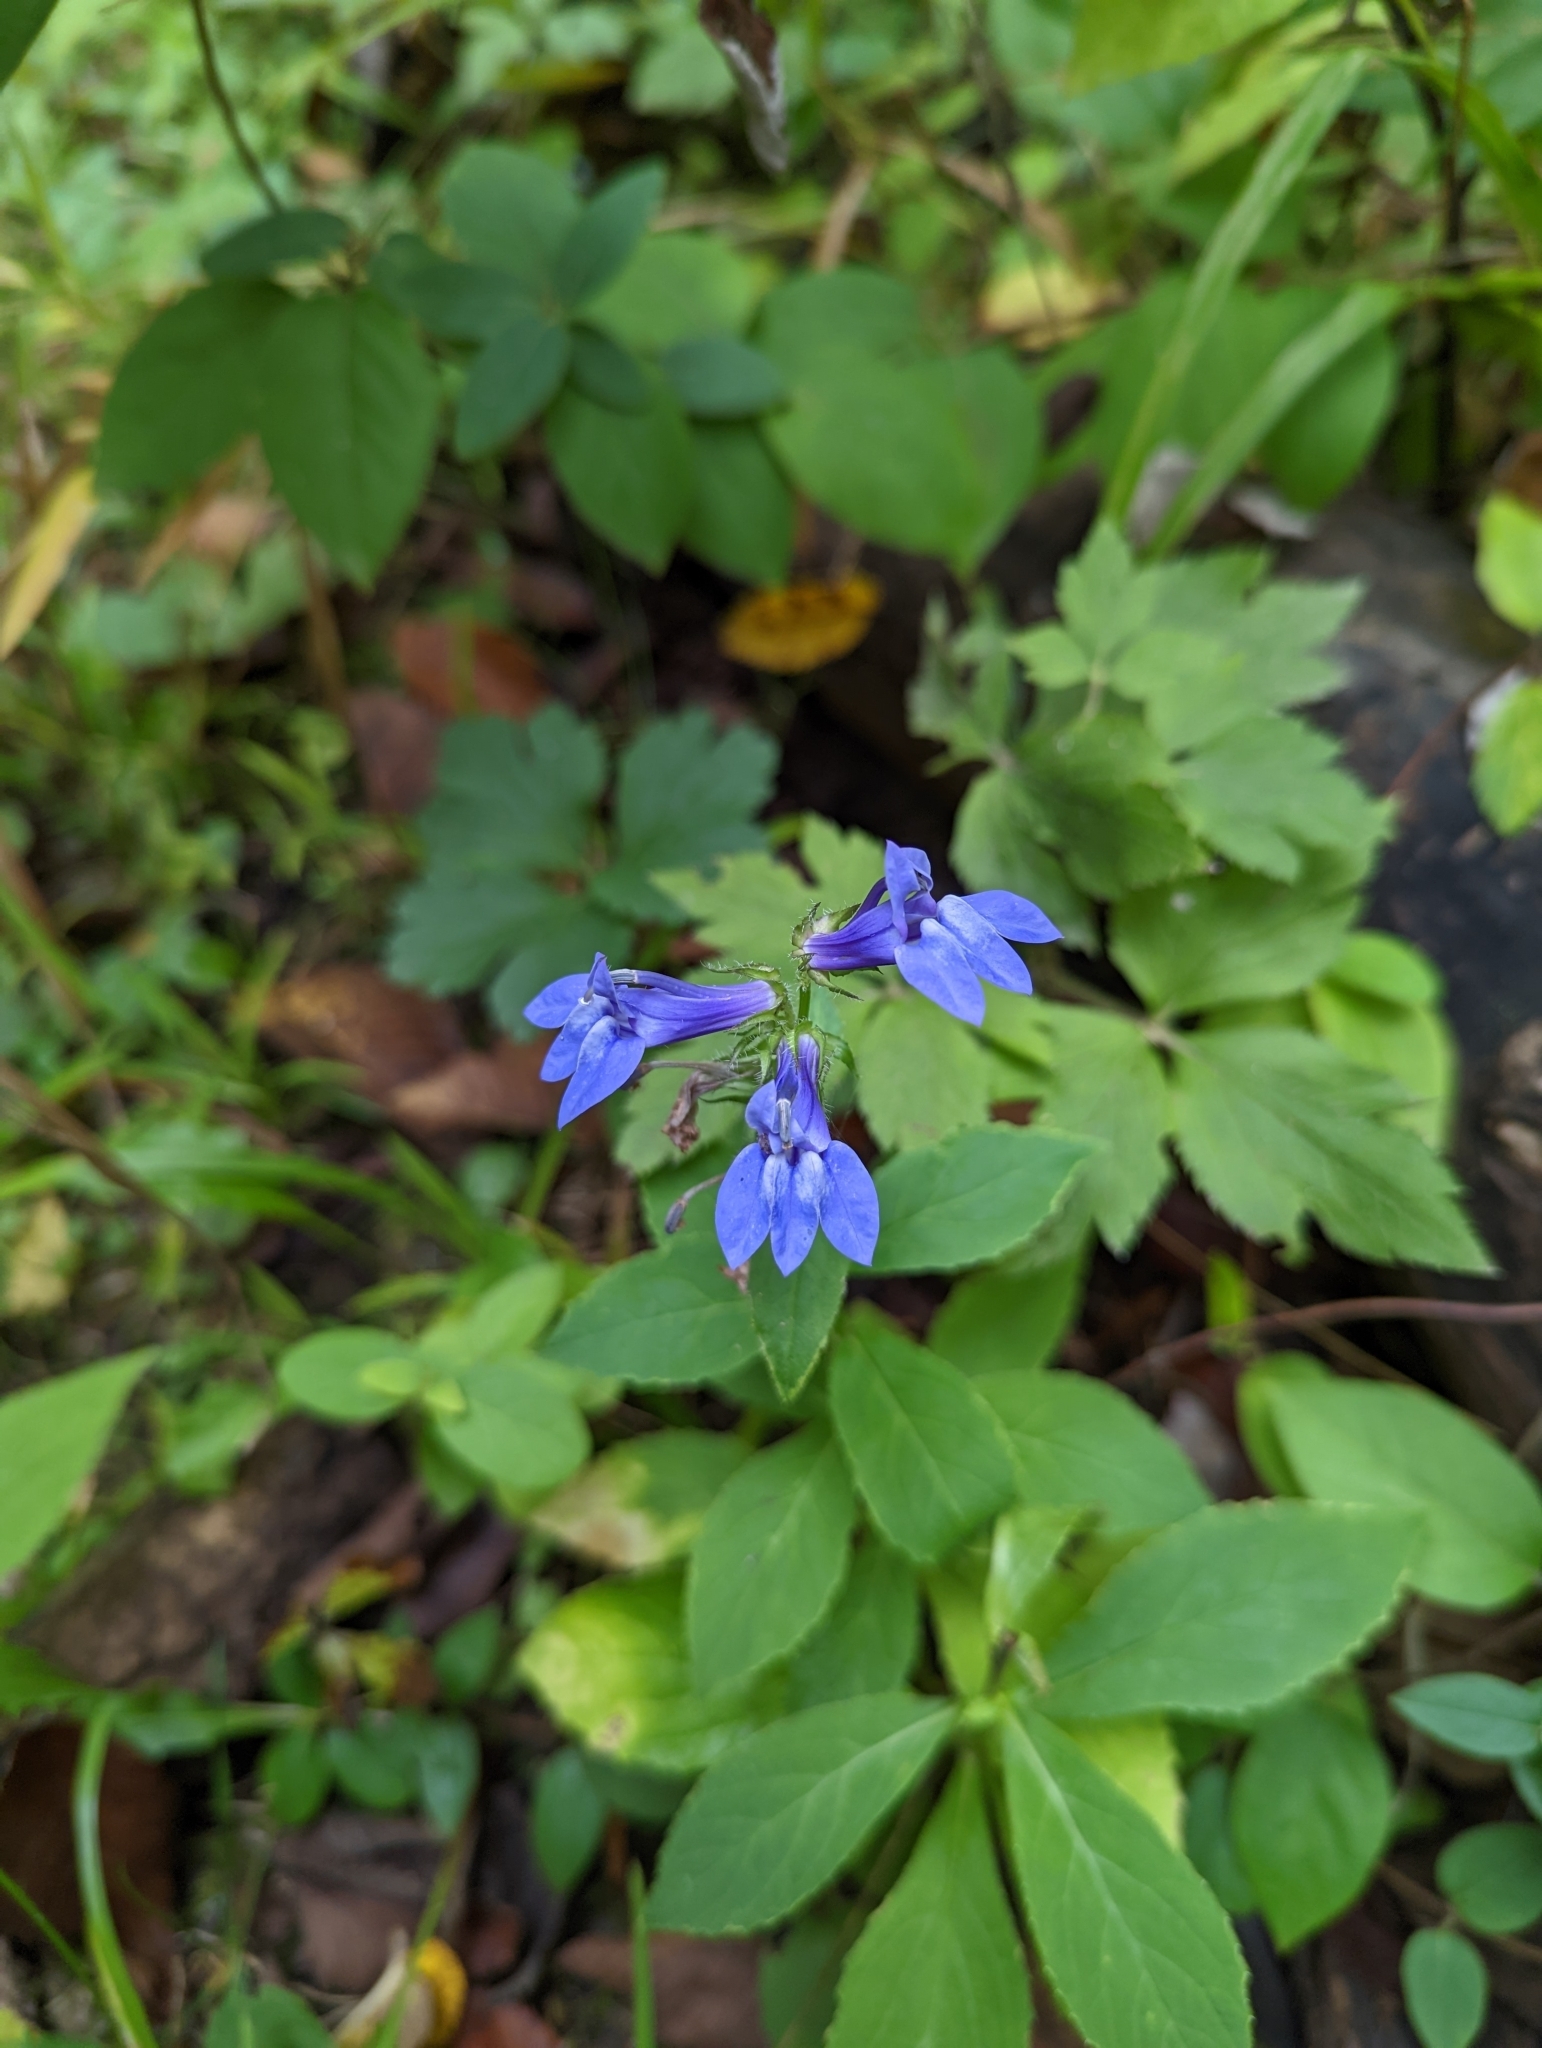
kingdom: Plantae
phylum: Tracheophyta
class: Magnoliopsida
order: Asterales
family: Campanulaceae
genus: Lobelia
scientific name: Lobelia siphilitica
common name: Great lobelia
